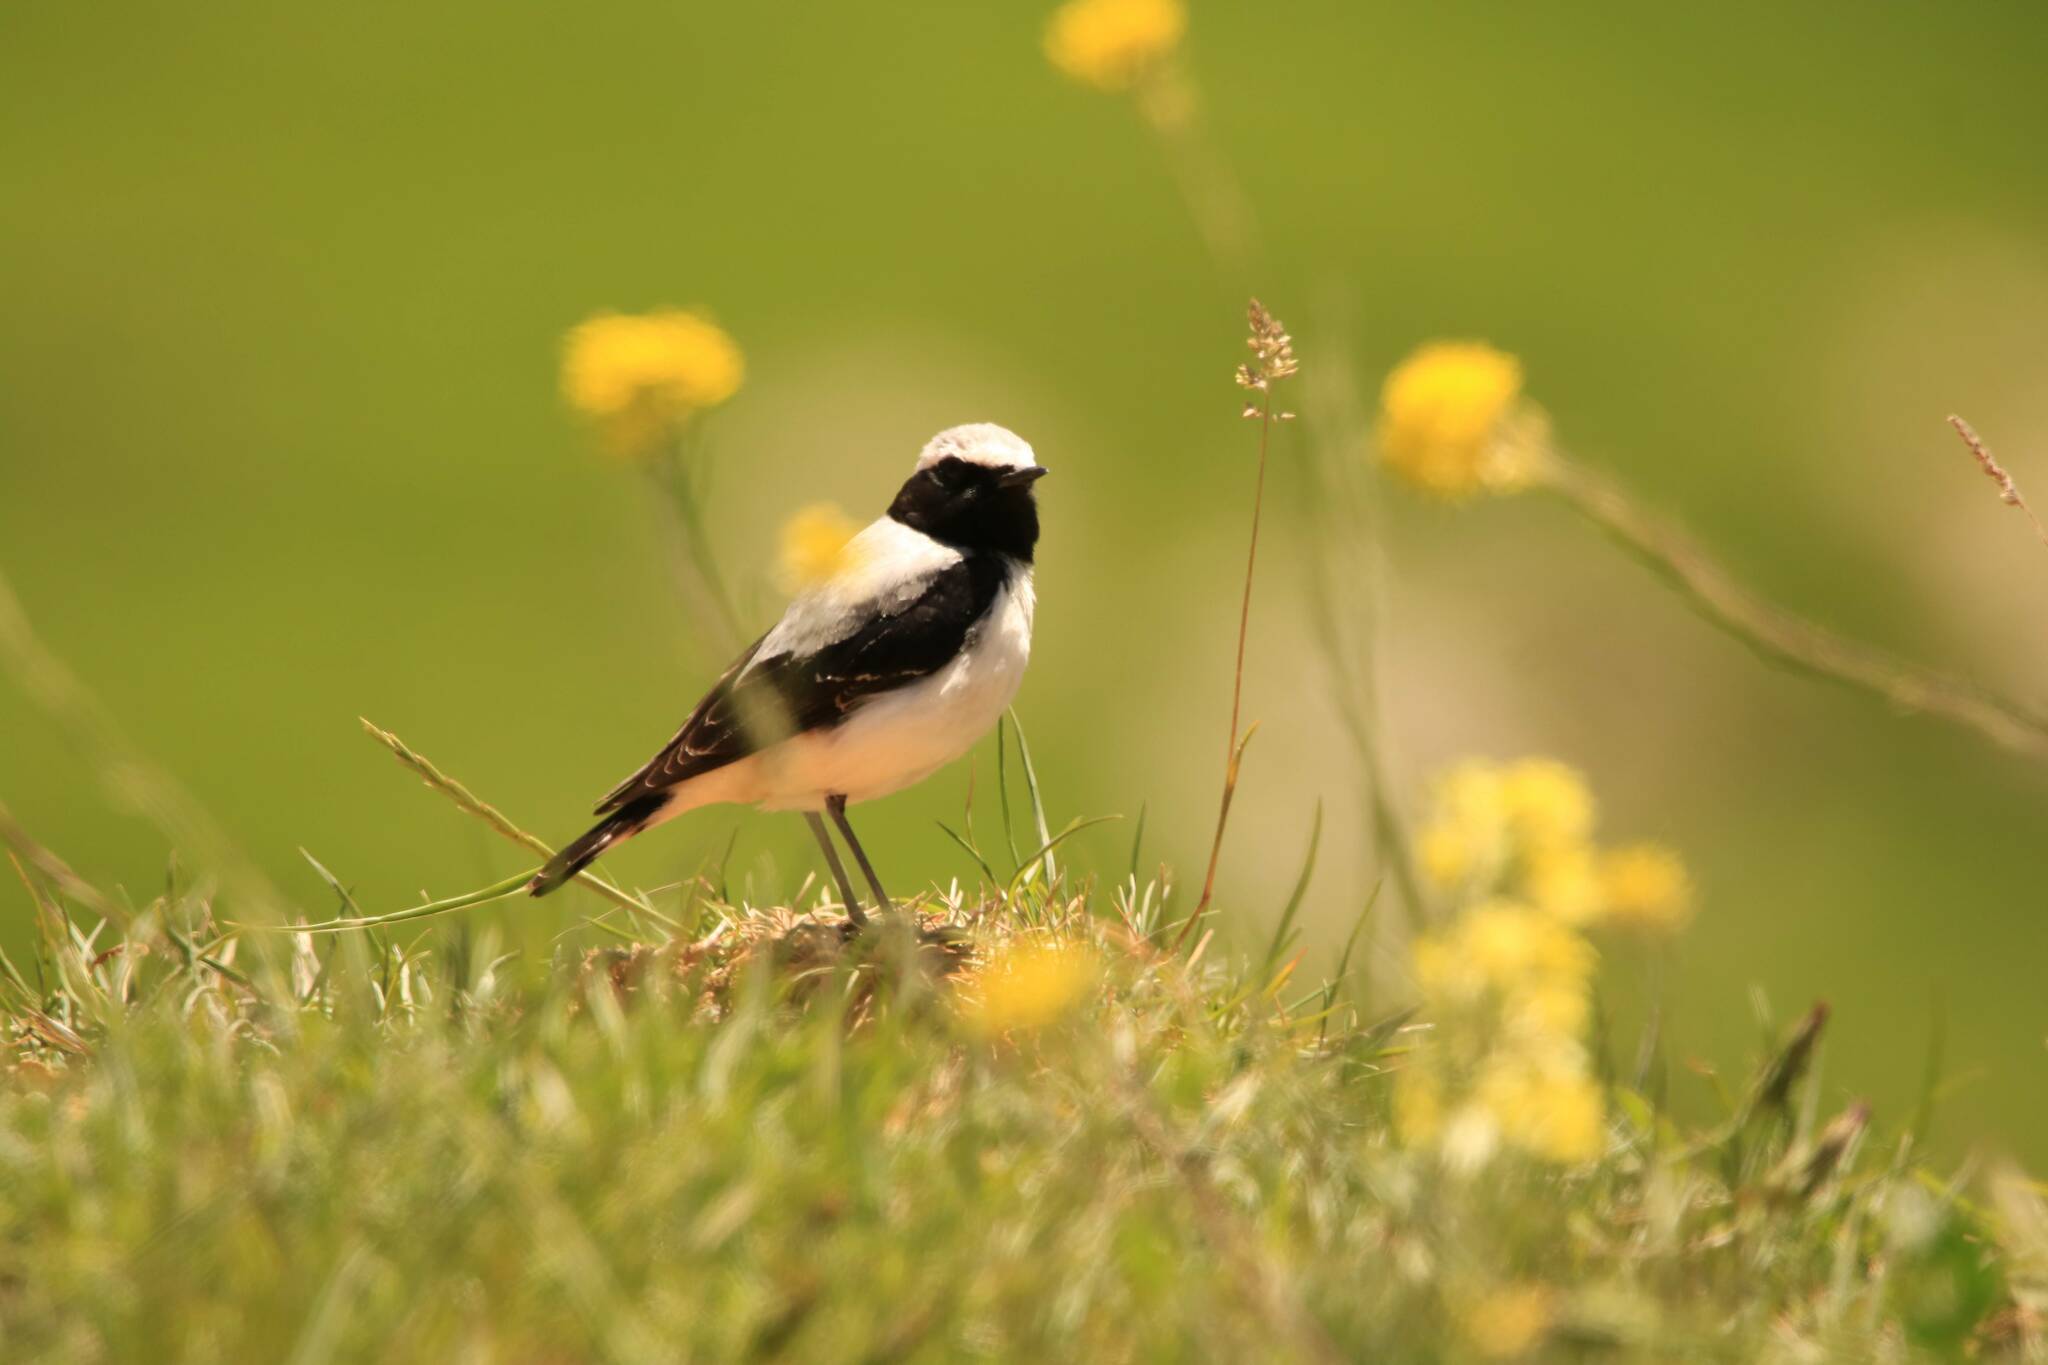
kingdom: Animalia
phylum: Chordata
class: Aves
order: Passeriformes
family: Muscicapidae
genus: Oenanthe
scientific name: Oenanthe oenanthe
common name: Northern wheatear
